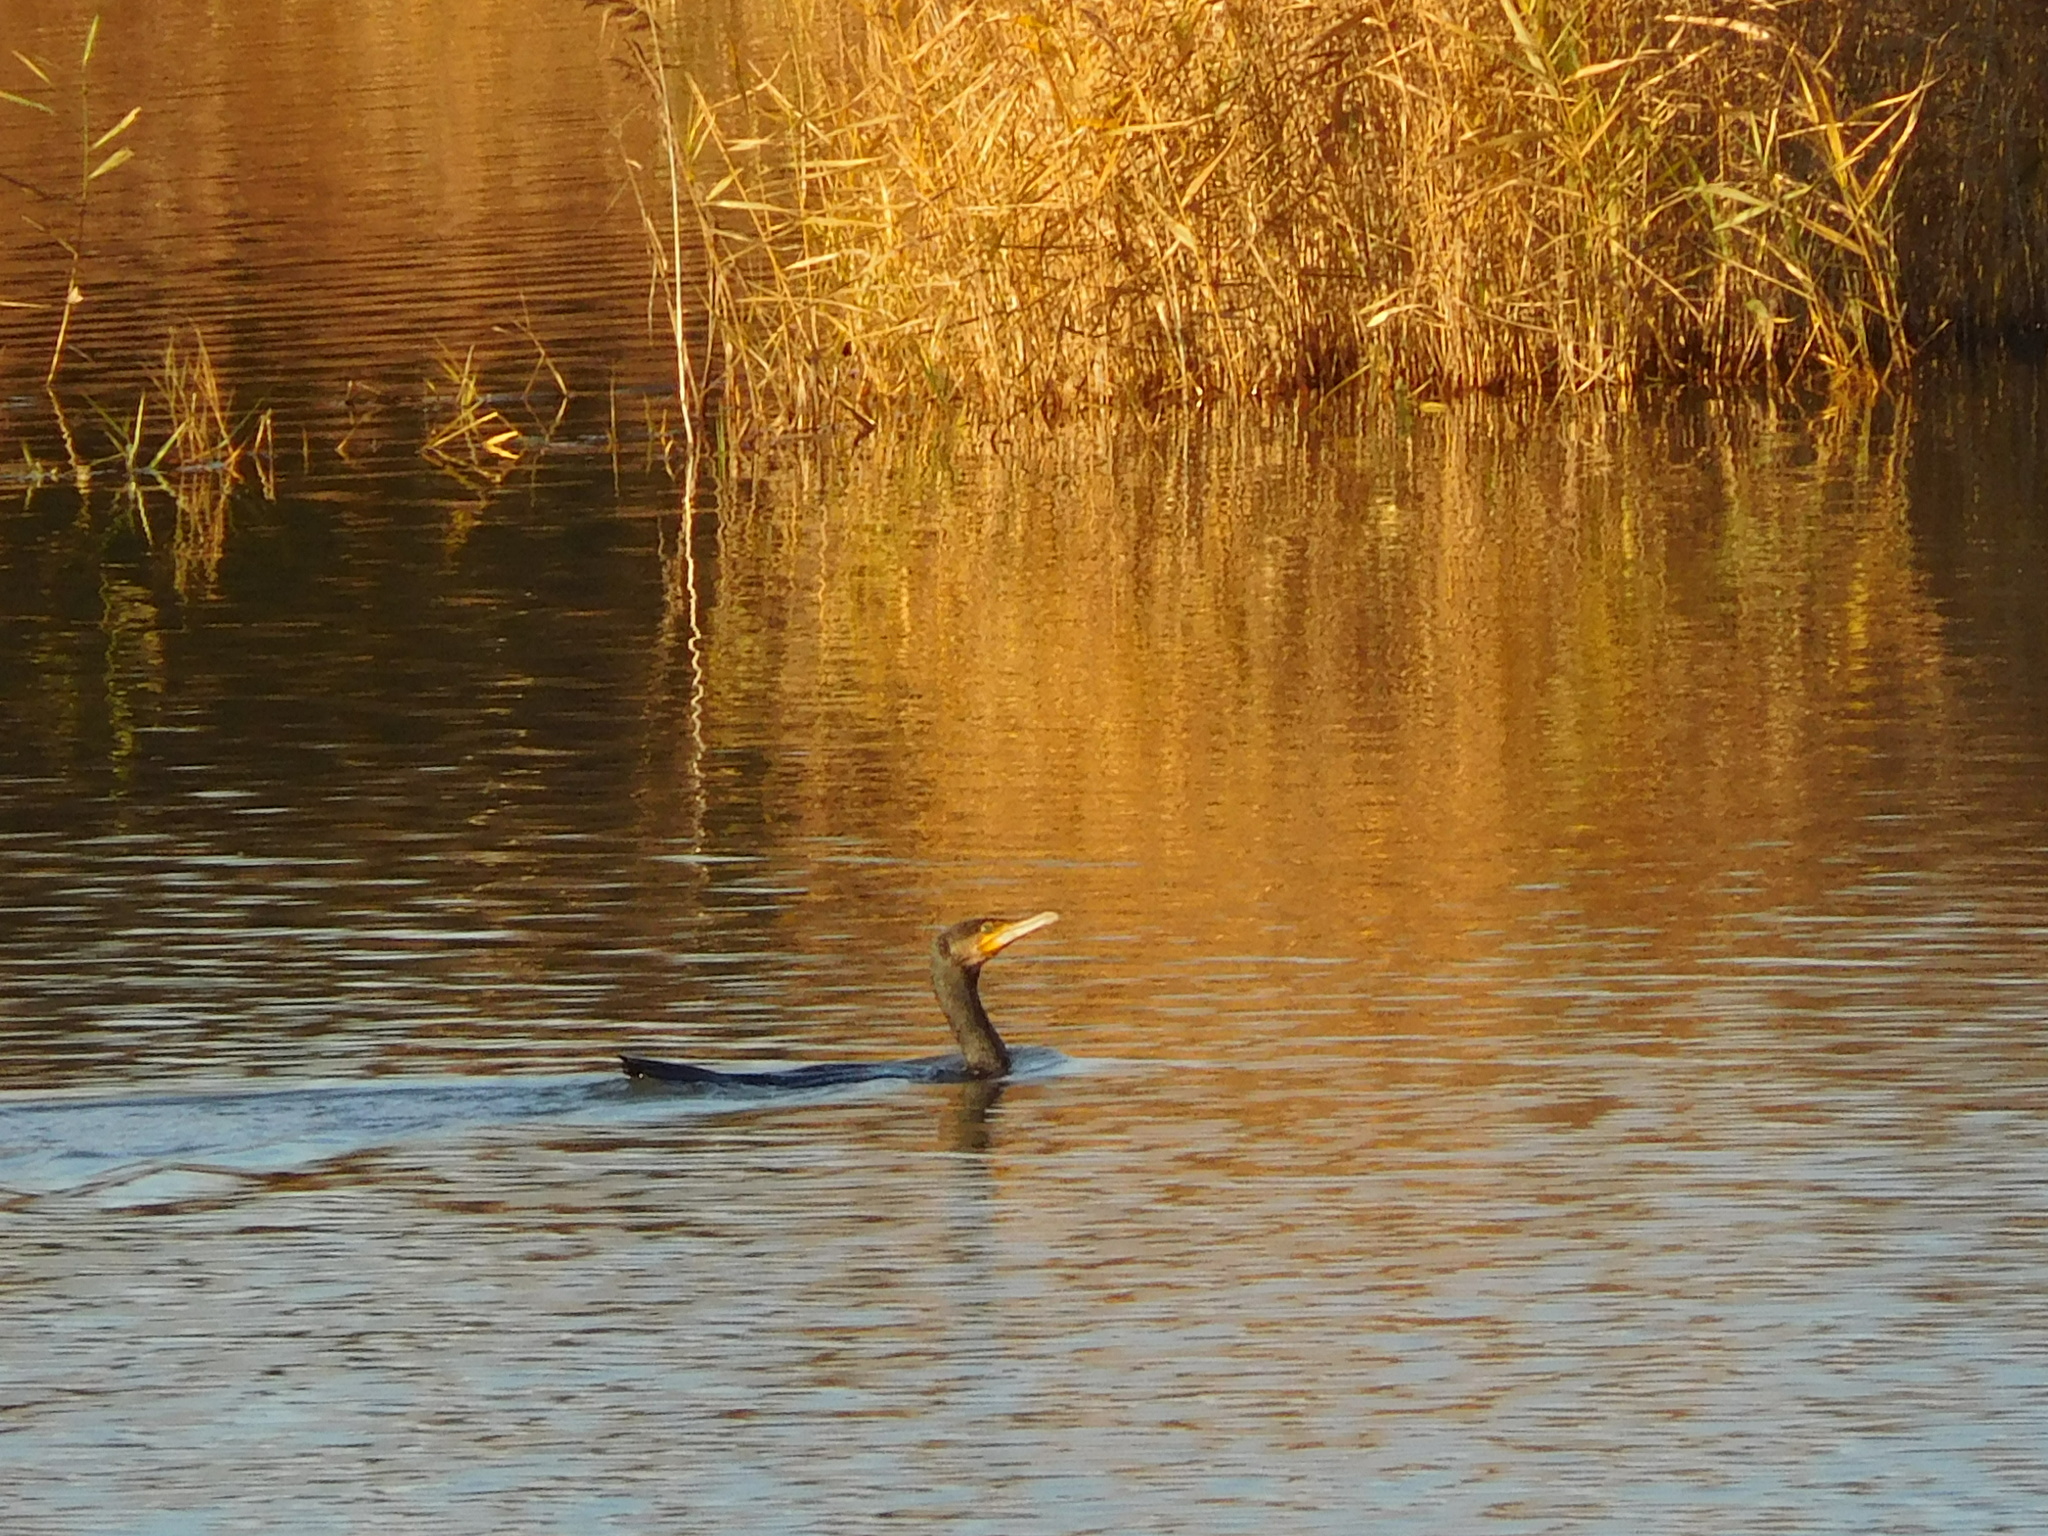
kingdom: Animalia
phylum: Chordata
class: Aves
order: Suliformes
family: Phalacrocoracidae
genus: Phalacrocorax
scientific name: Phalacrocorax carbo
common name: Great cormorant
